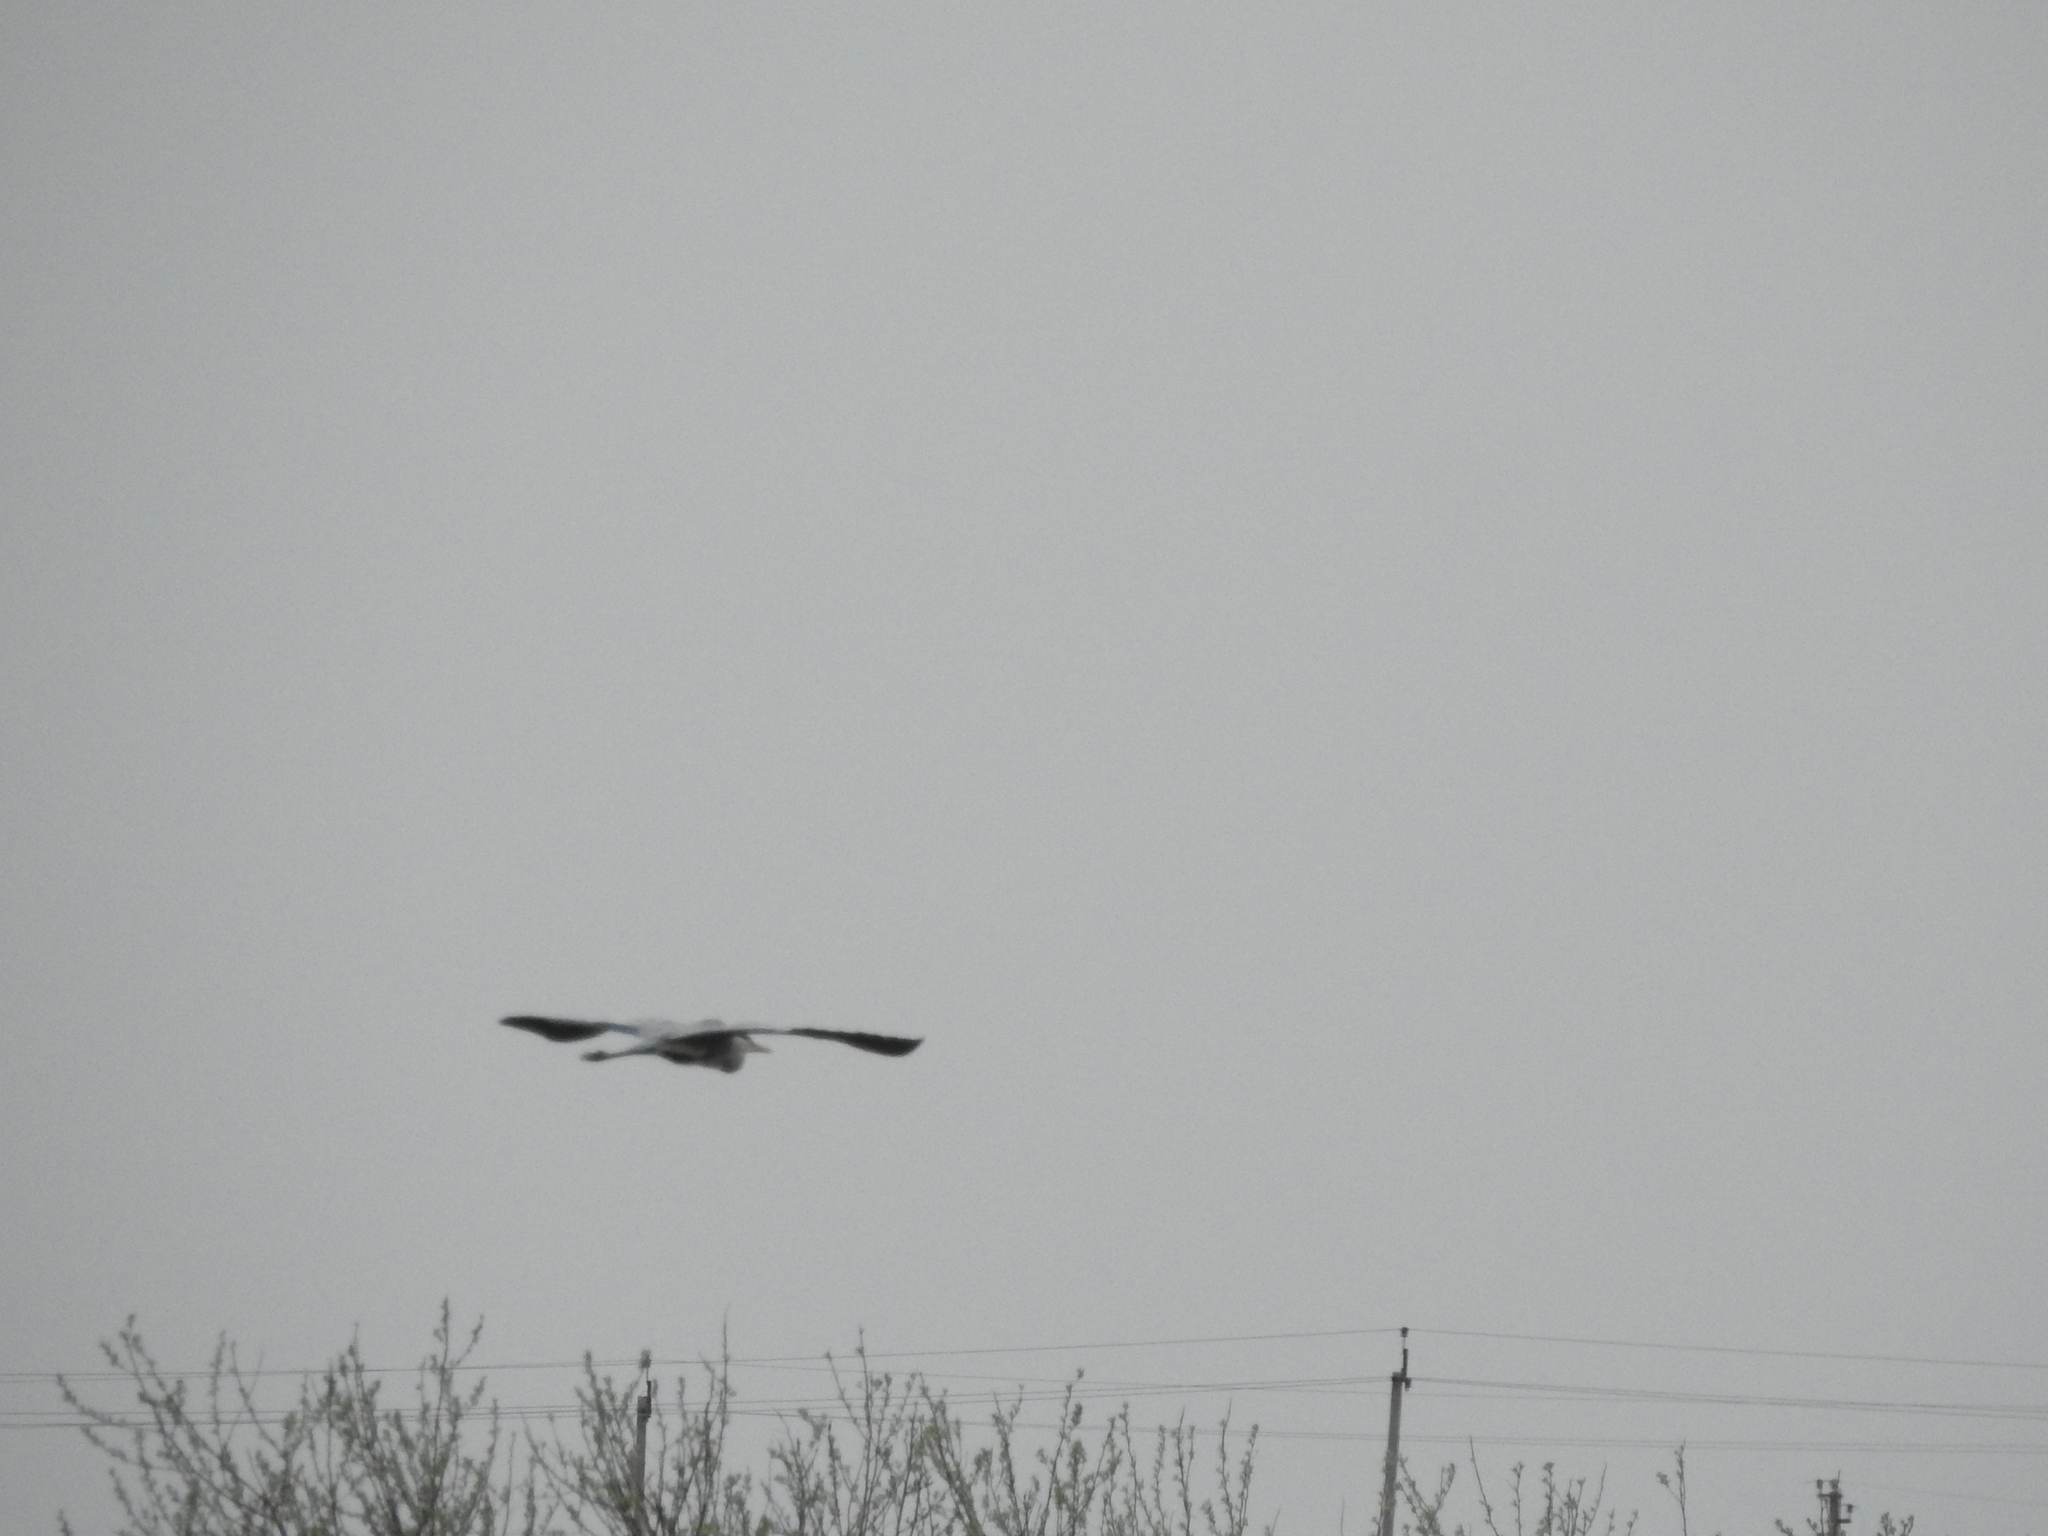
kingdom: Animalia
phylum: Chordata
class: Aves
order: Pelecaniformes
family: Ardeidae
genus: Ardea
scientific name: Ardea cinerea
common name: Grey heron
